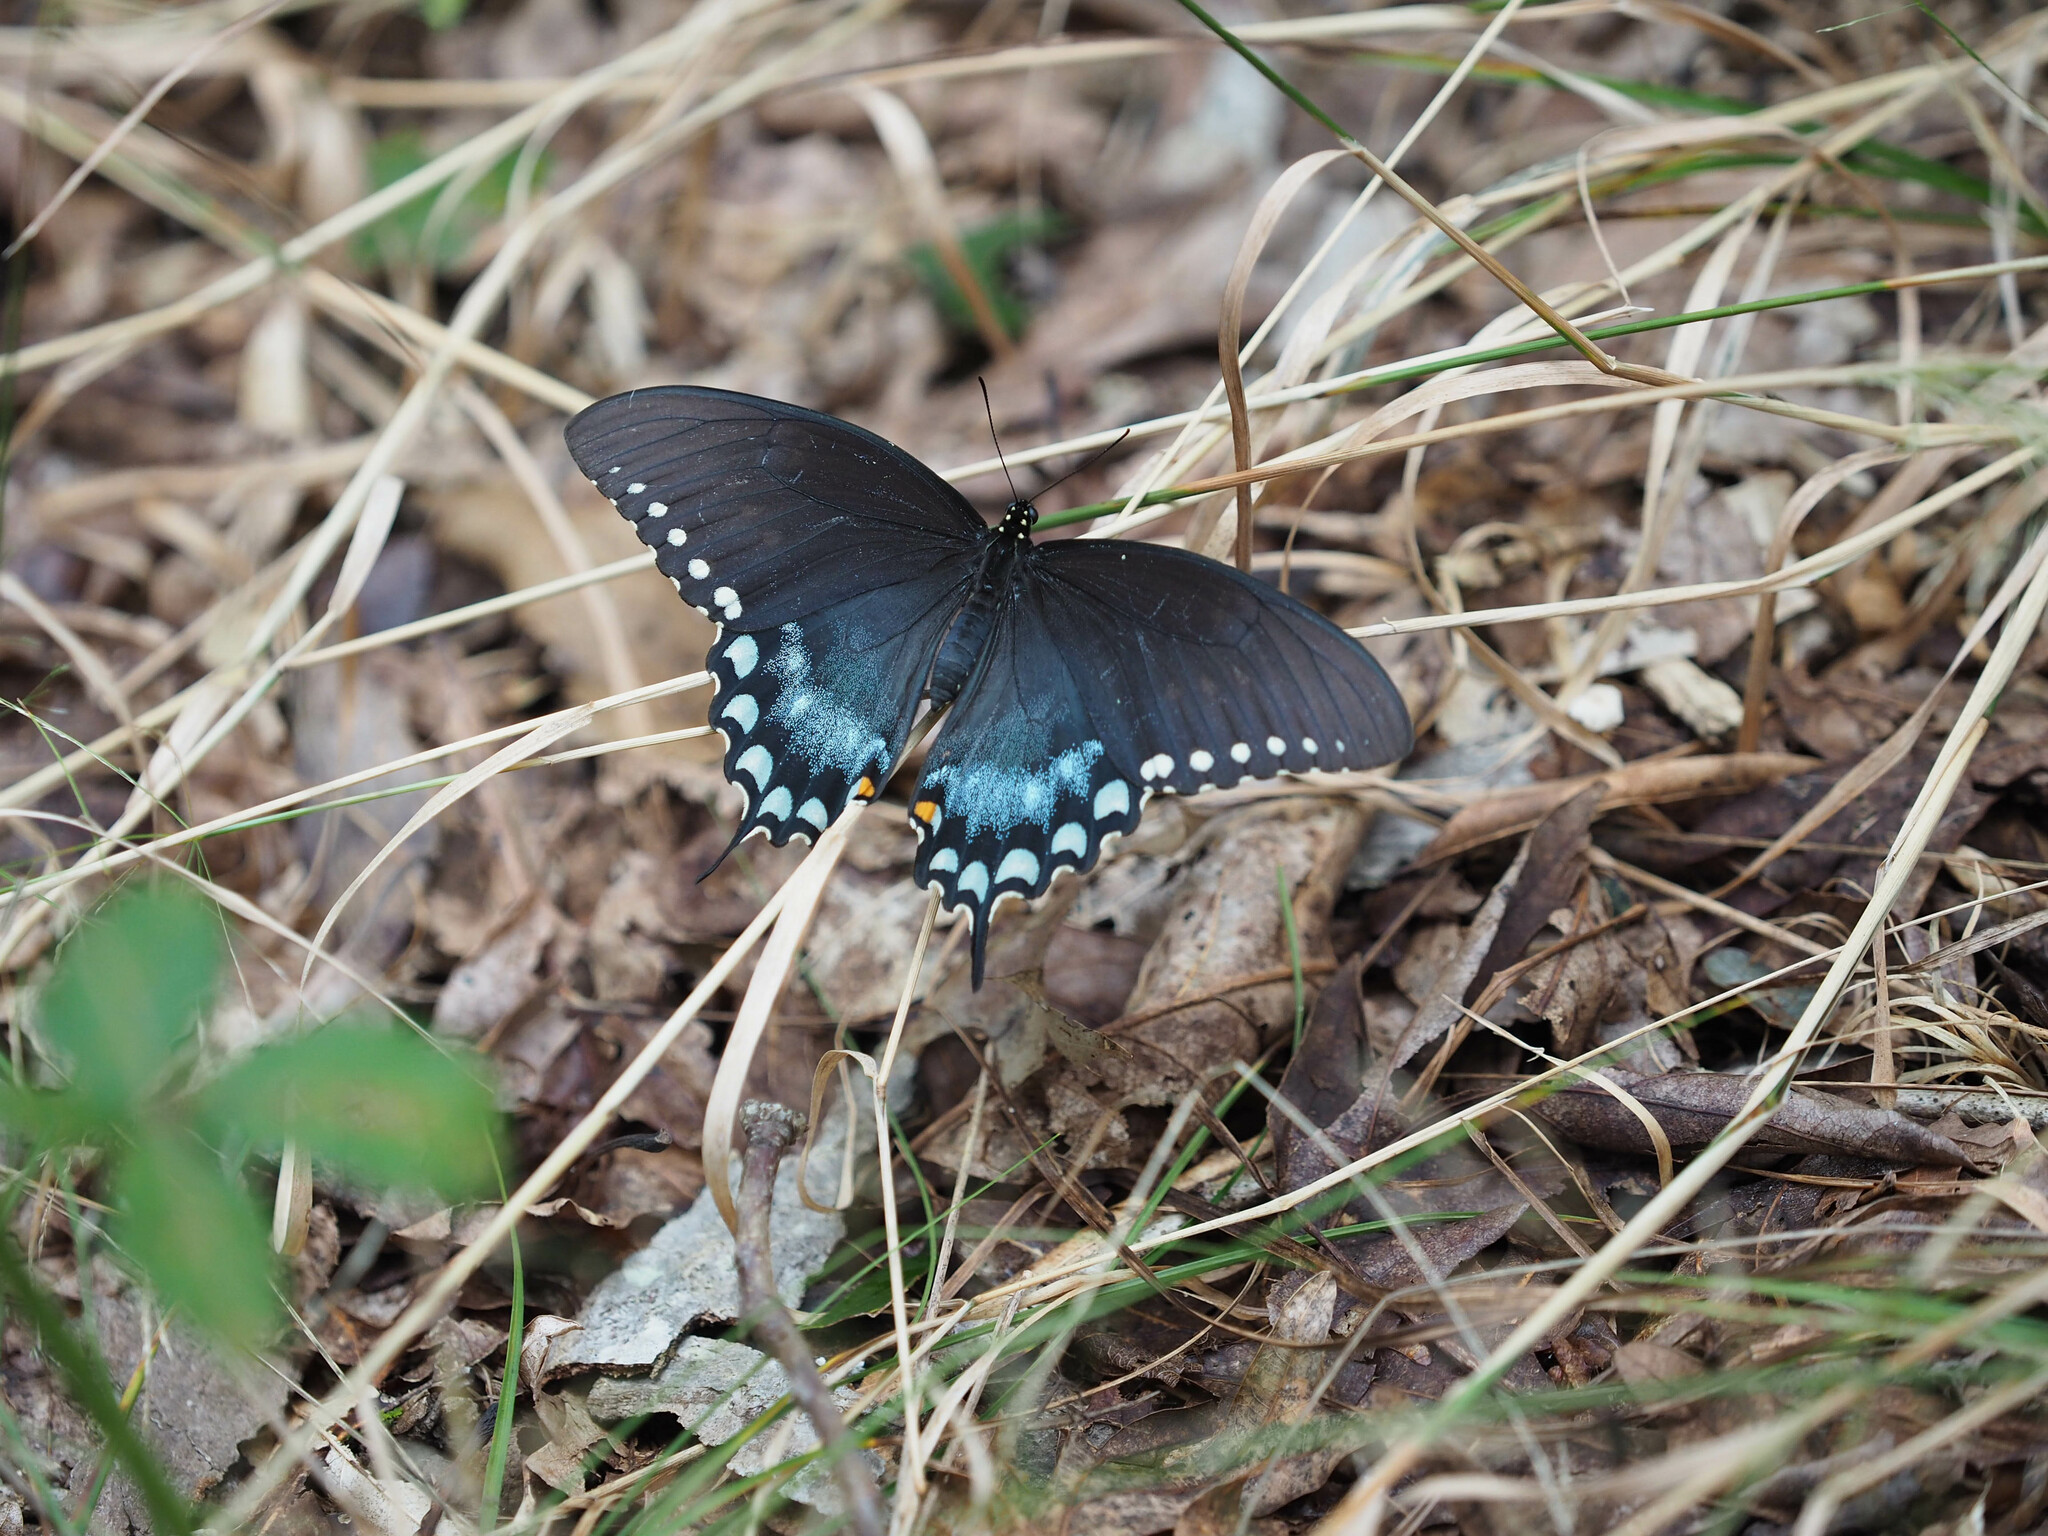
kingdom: Animalia
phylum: Arthropoda
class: Insecta
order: Lepidoptera
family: Papilionidae
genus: Papilio
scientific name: Papilio troilus
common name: Spicebush swallowtail
